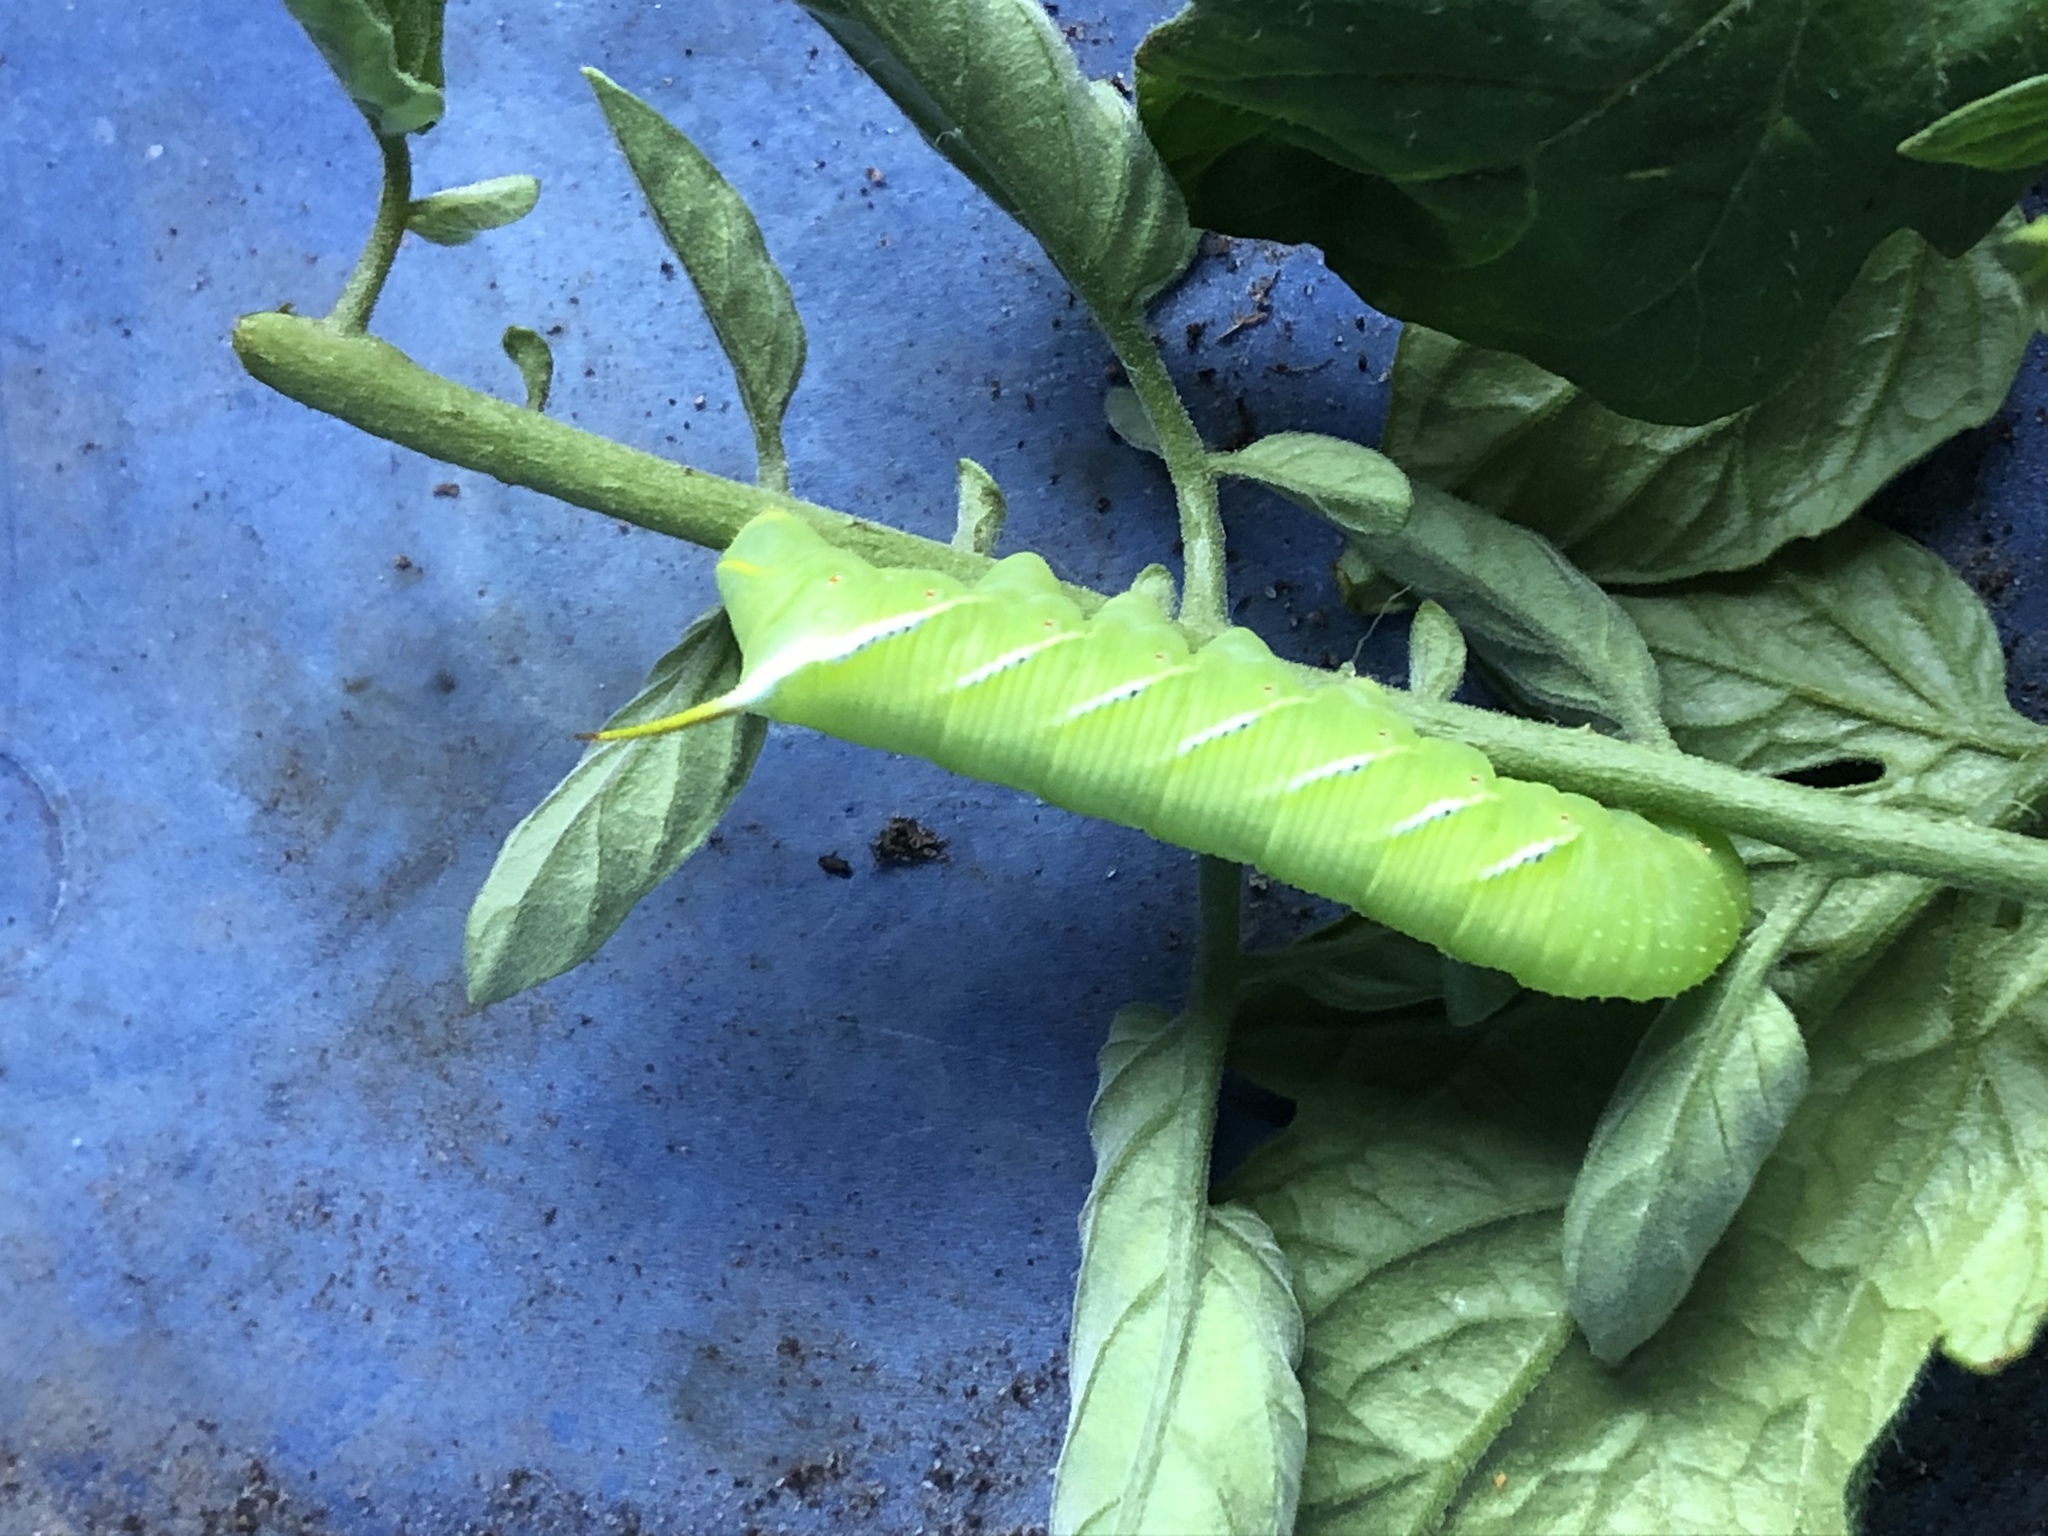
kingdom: Animalia
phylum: Arthropoda
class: Insecta
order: Lepidoptera
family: Sphingidae
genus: Manduca
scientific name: Manduca sexta
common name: Carolina sphinx
